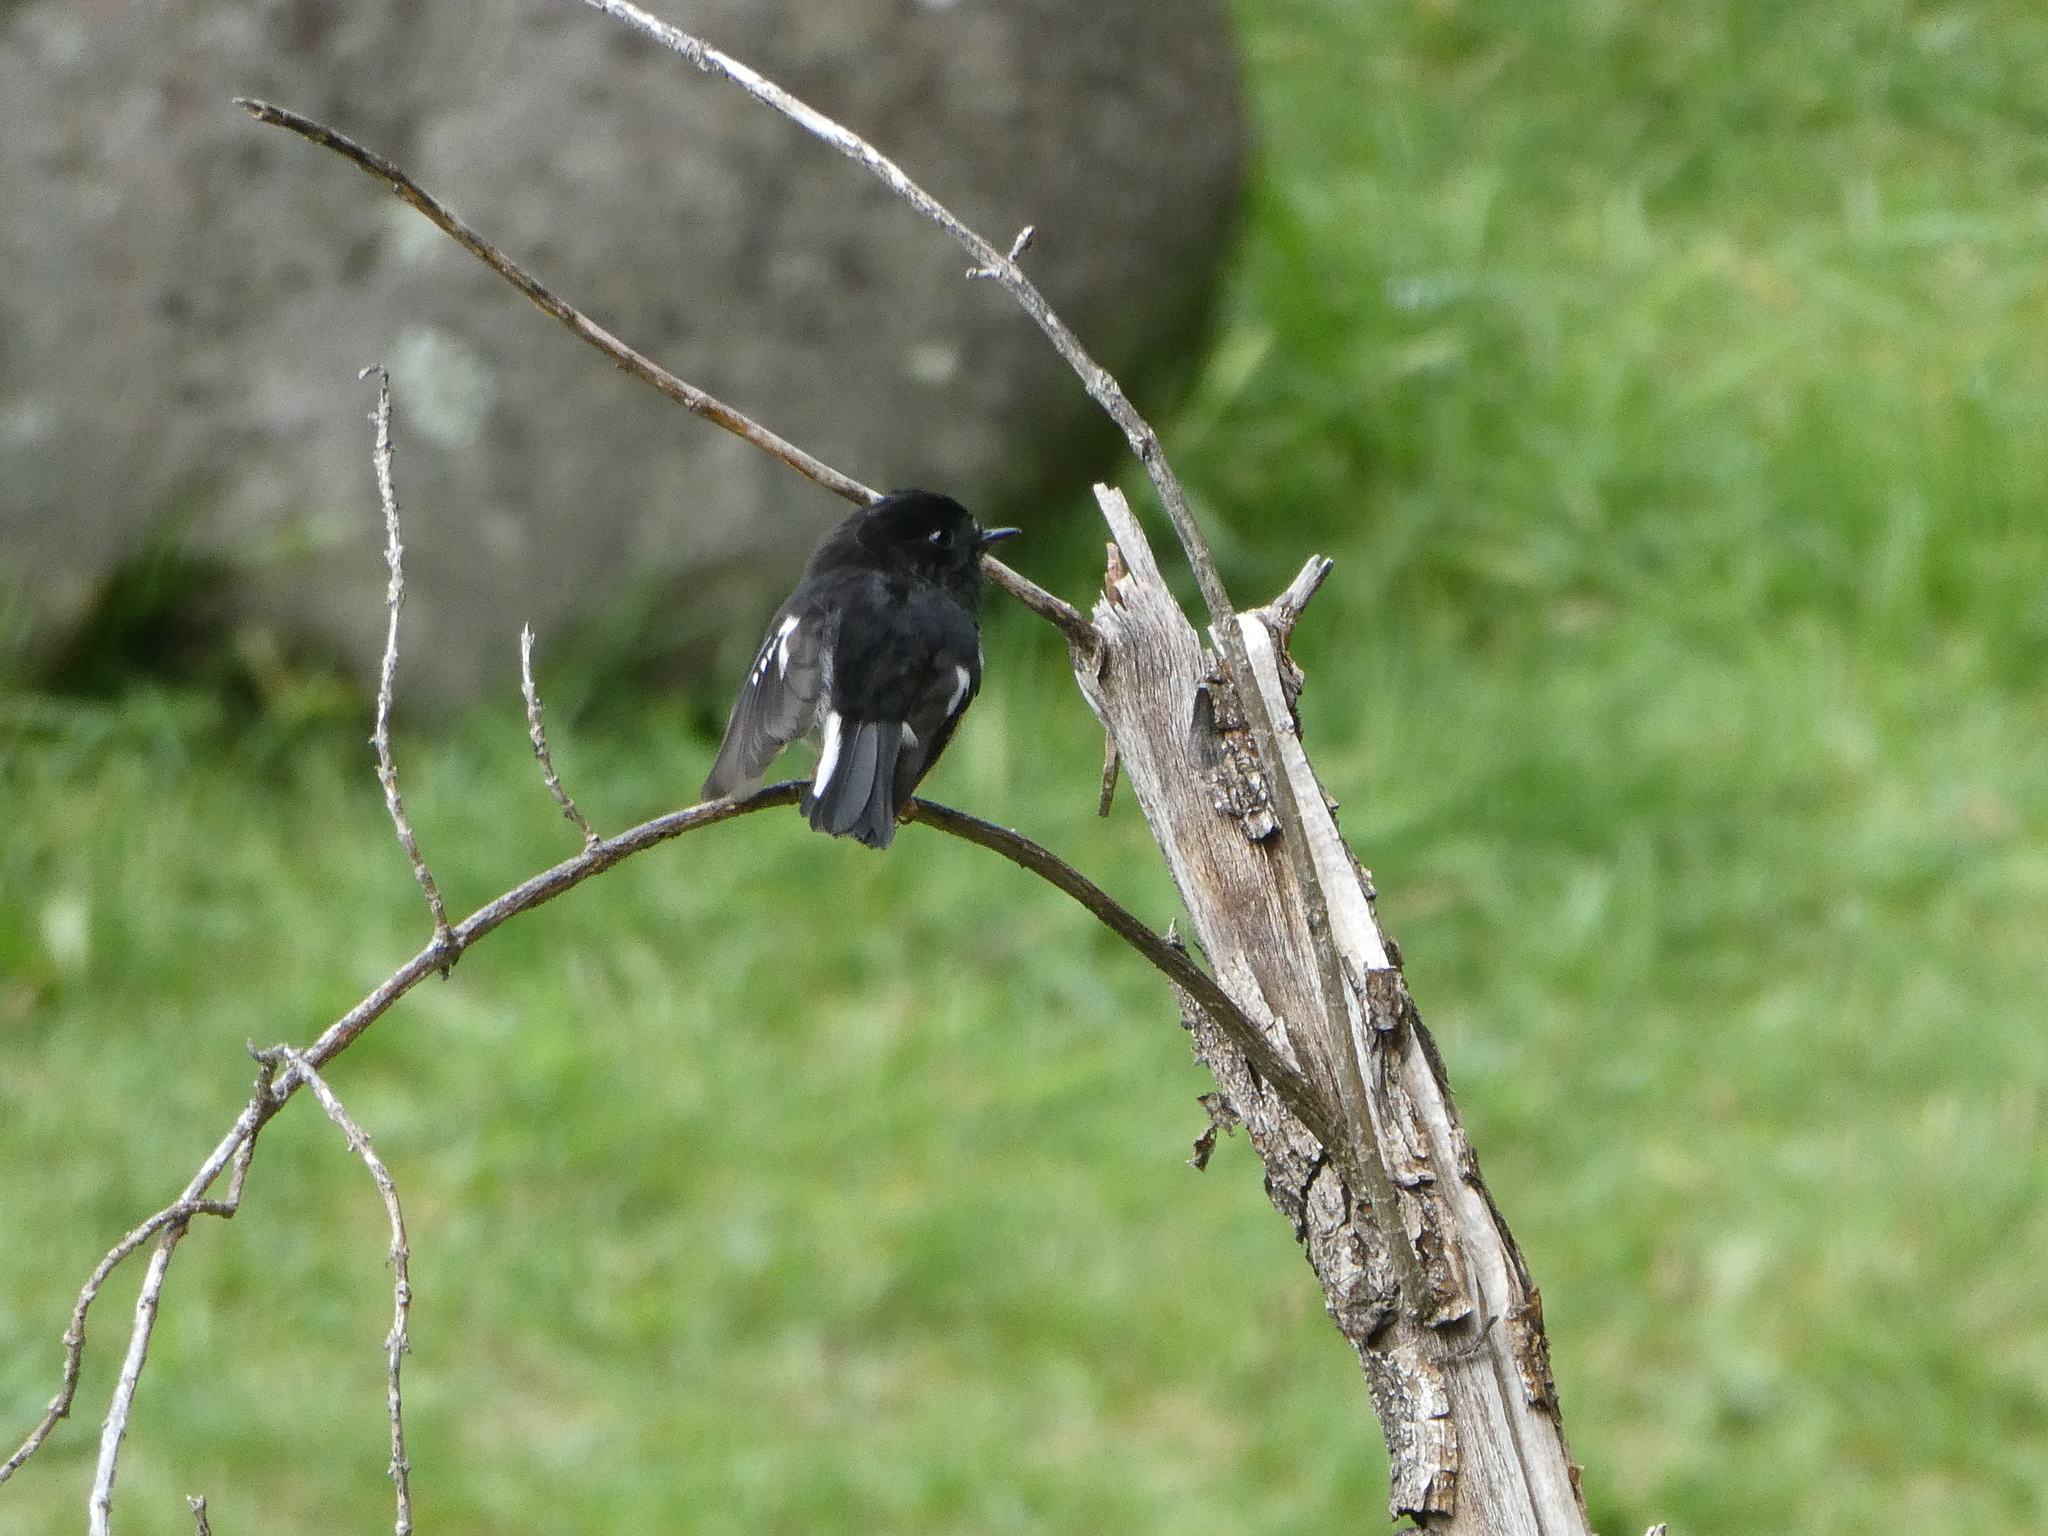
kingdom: Animalia
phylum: Chordata
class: Aves
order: Passeriformes
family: Petroicidae
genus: Petroica
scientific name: Petroica macrocephala
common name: Tomtit
